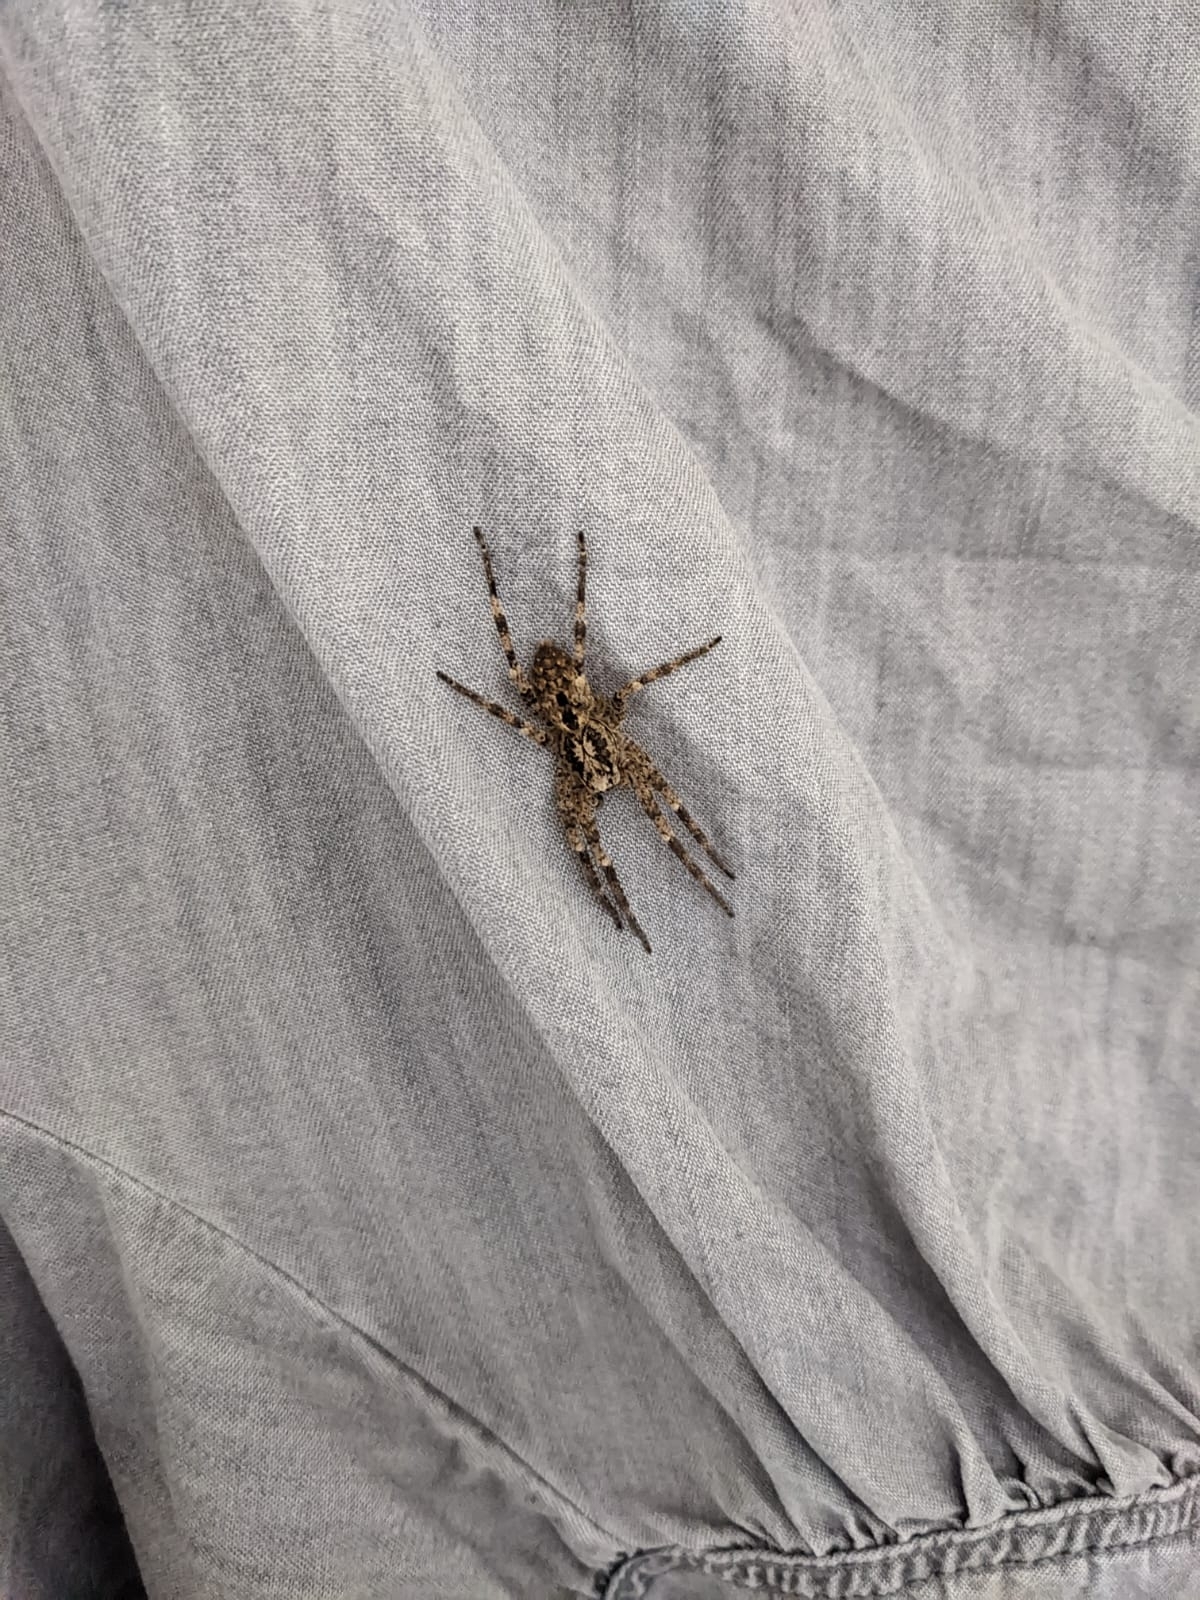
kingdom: Animalia
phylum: Arthropoda
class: Arachnida
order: Araneae
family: Zoropsidae
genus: Zoropsis
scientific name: Zoropsis spinimana
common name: Zoropsid spider
